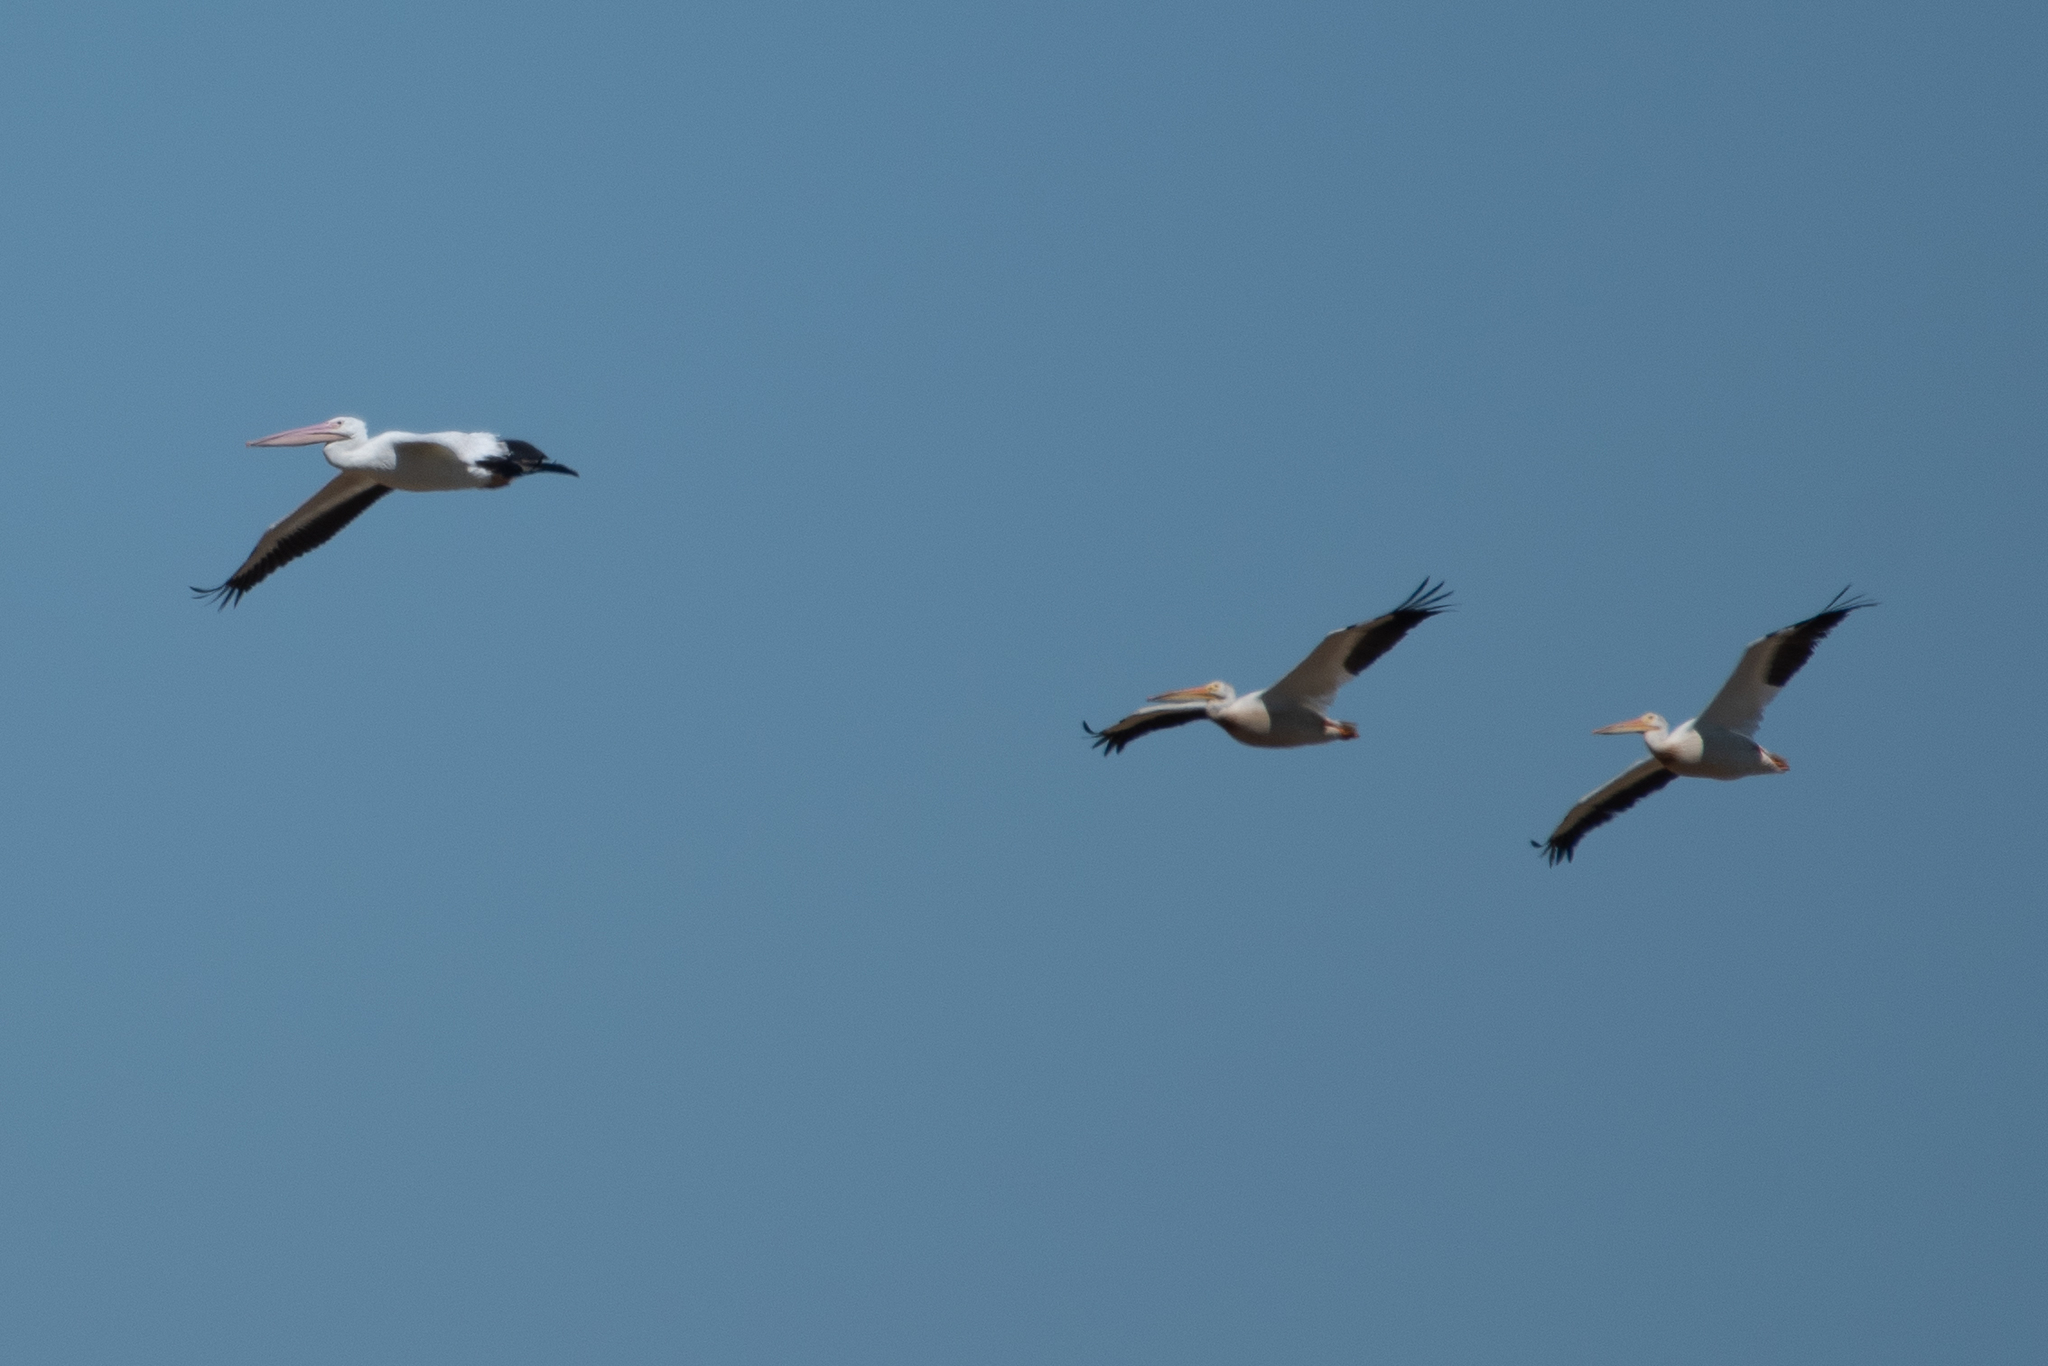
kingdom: Animalia
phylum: Chordata
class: Aves
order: Pelecaniformes
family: Pelecanidae
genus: Pelecanus
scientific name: Pelecanus erythrorhynchos
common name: American white pelican
